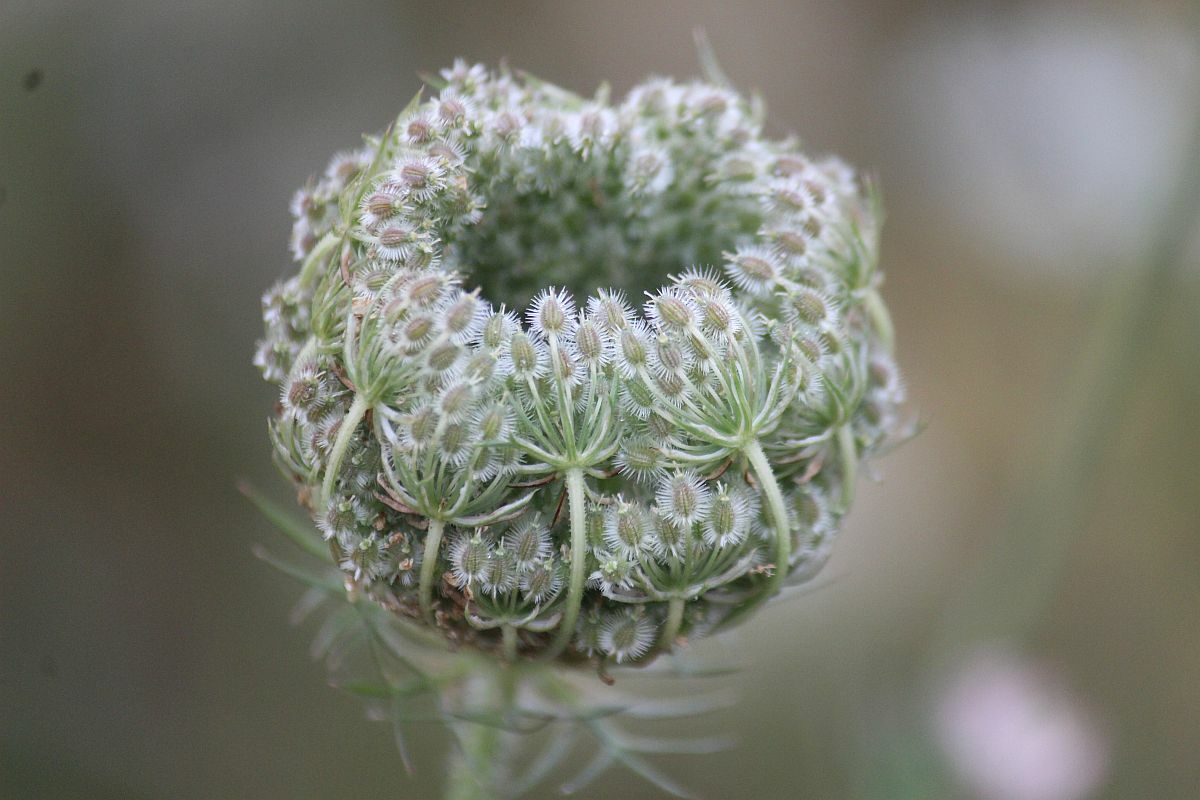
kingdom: Plantae
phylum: Tracheophyta
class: Magnoliopsida
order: Apiales
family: Apiaceae
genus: Daucus
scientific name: Daucus carota
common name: Wild carrot
